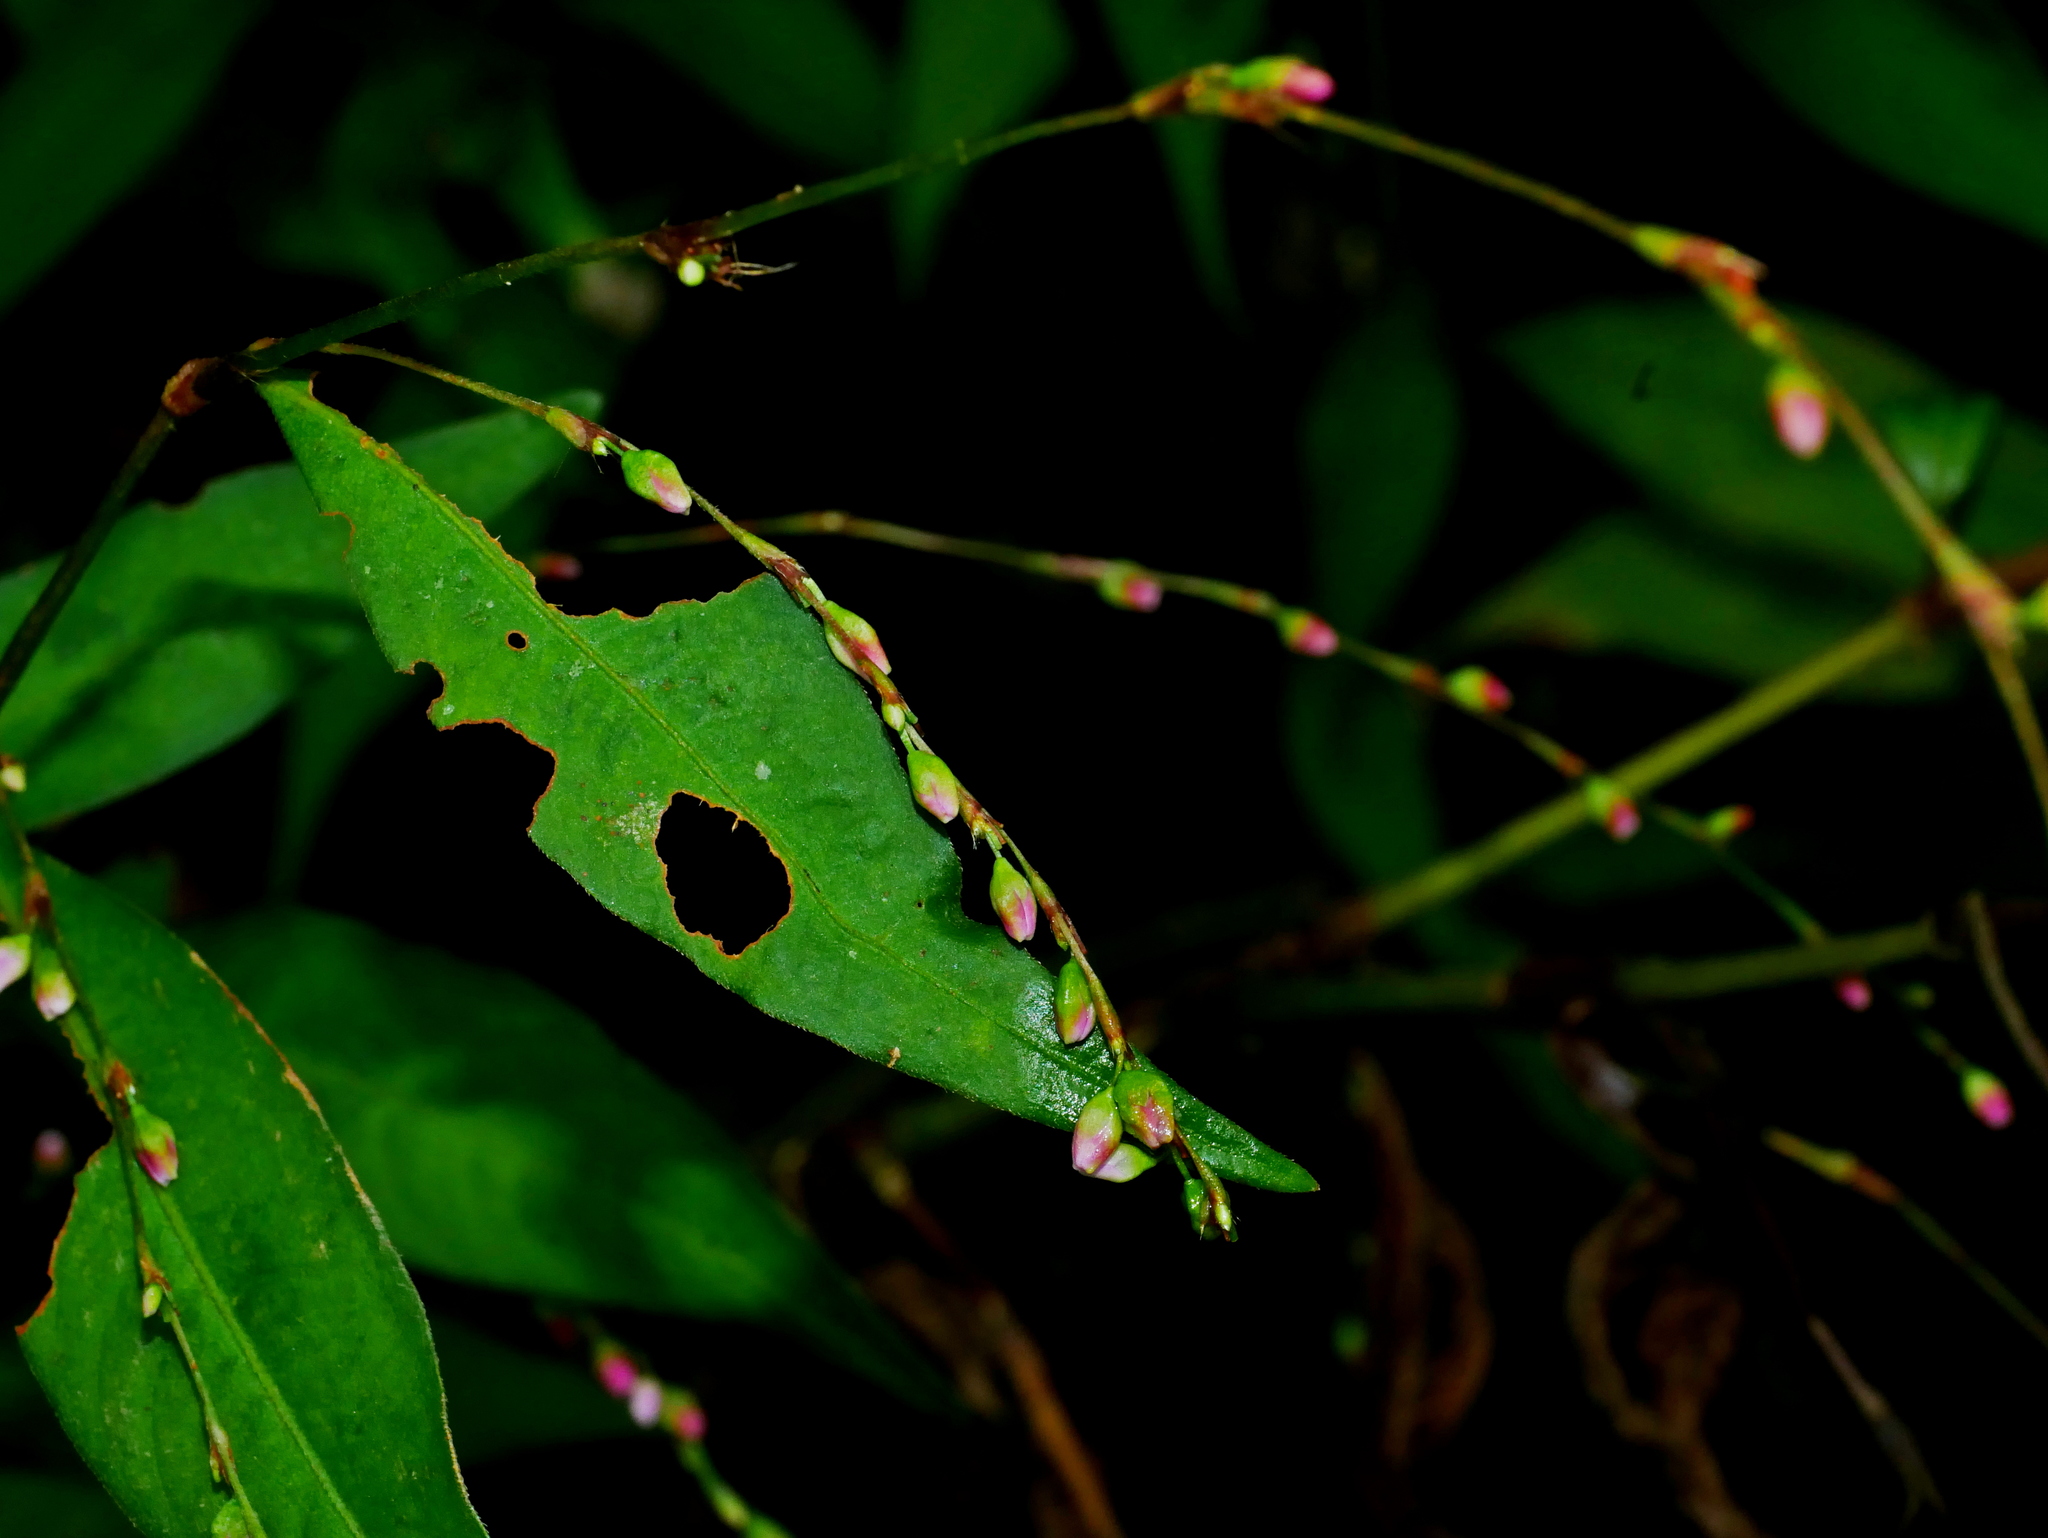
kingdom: Plantae
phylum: Tracheophyta
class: Magnoliopsida
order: Caryophyllales
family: Polygonaceae
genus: Persicaria
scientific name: Persicaria pubescens
